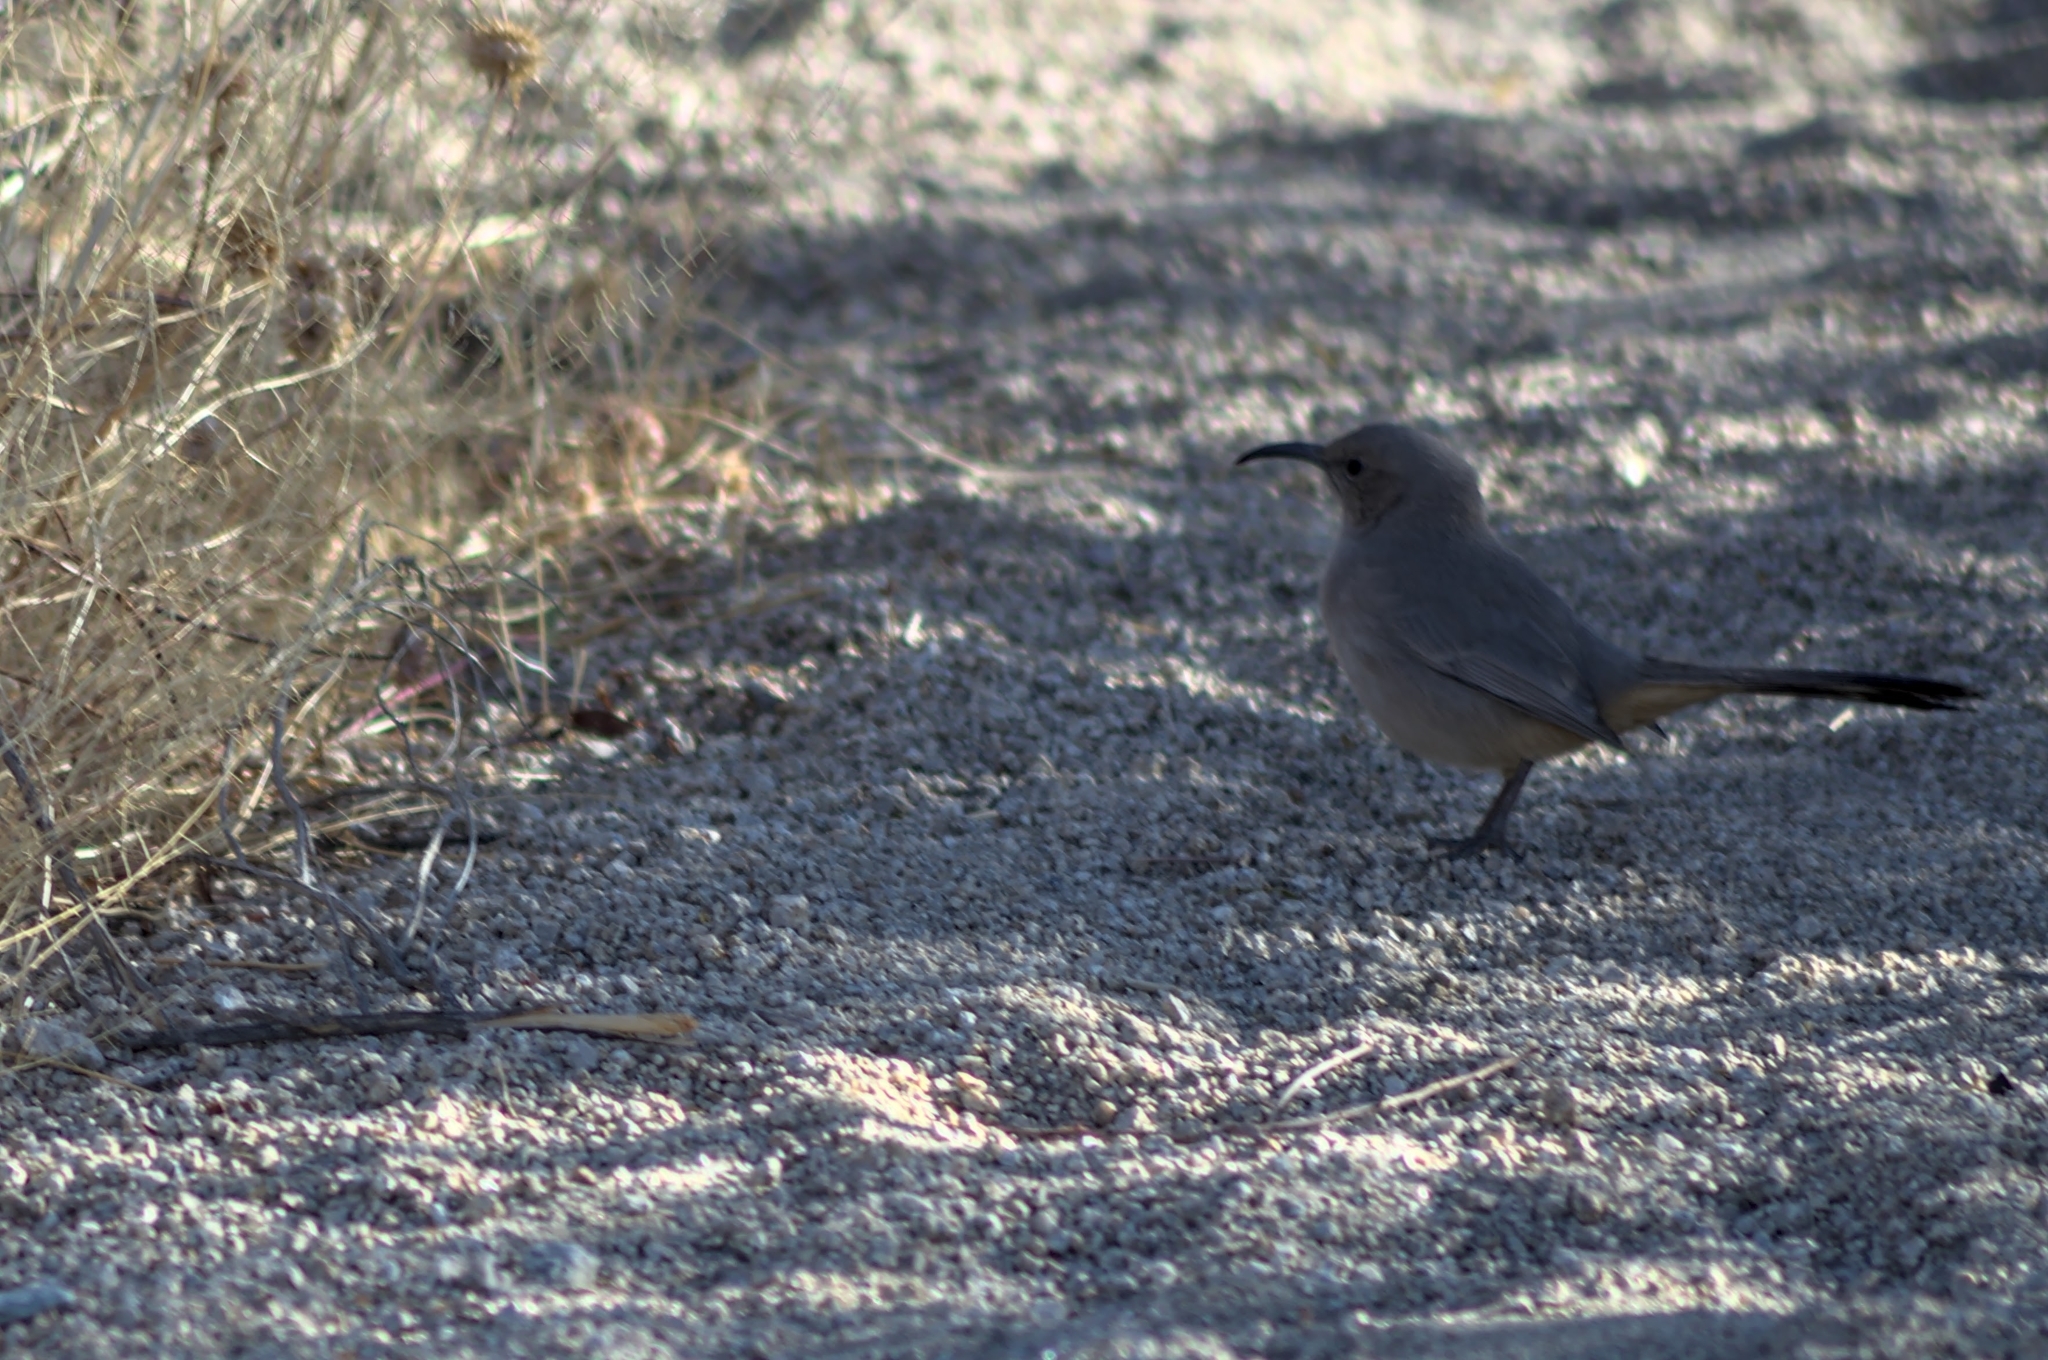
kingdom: Animalia
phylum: Chordata
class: Aves
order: Passeriformes
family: Mimidae
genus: Toxostoma
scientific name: Toxostoma lecontei
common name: Le conte's thrasher
